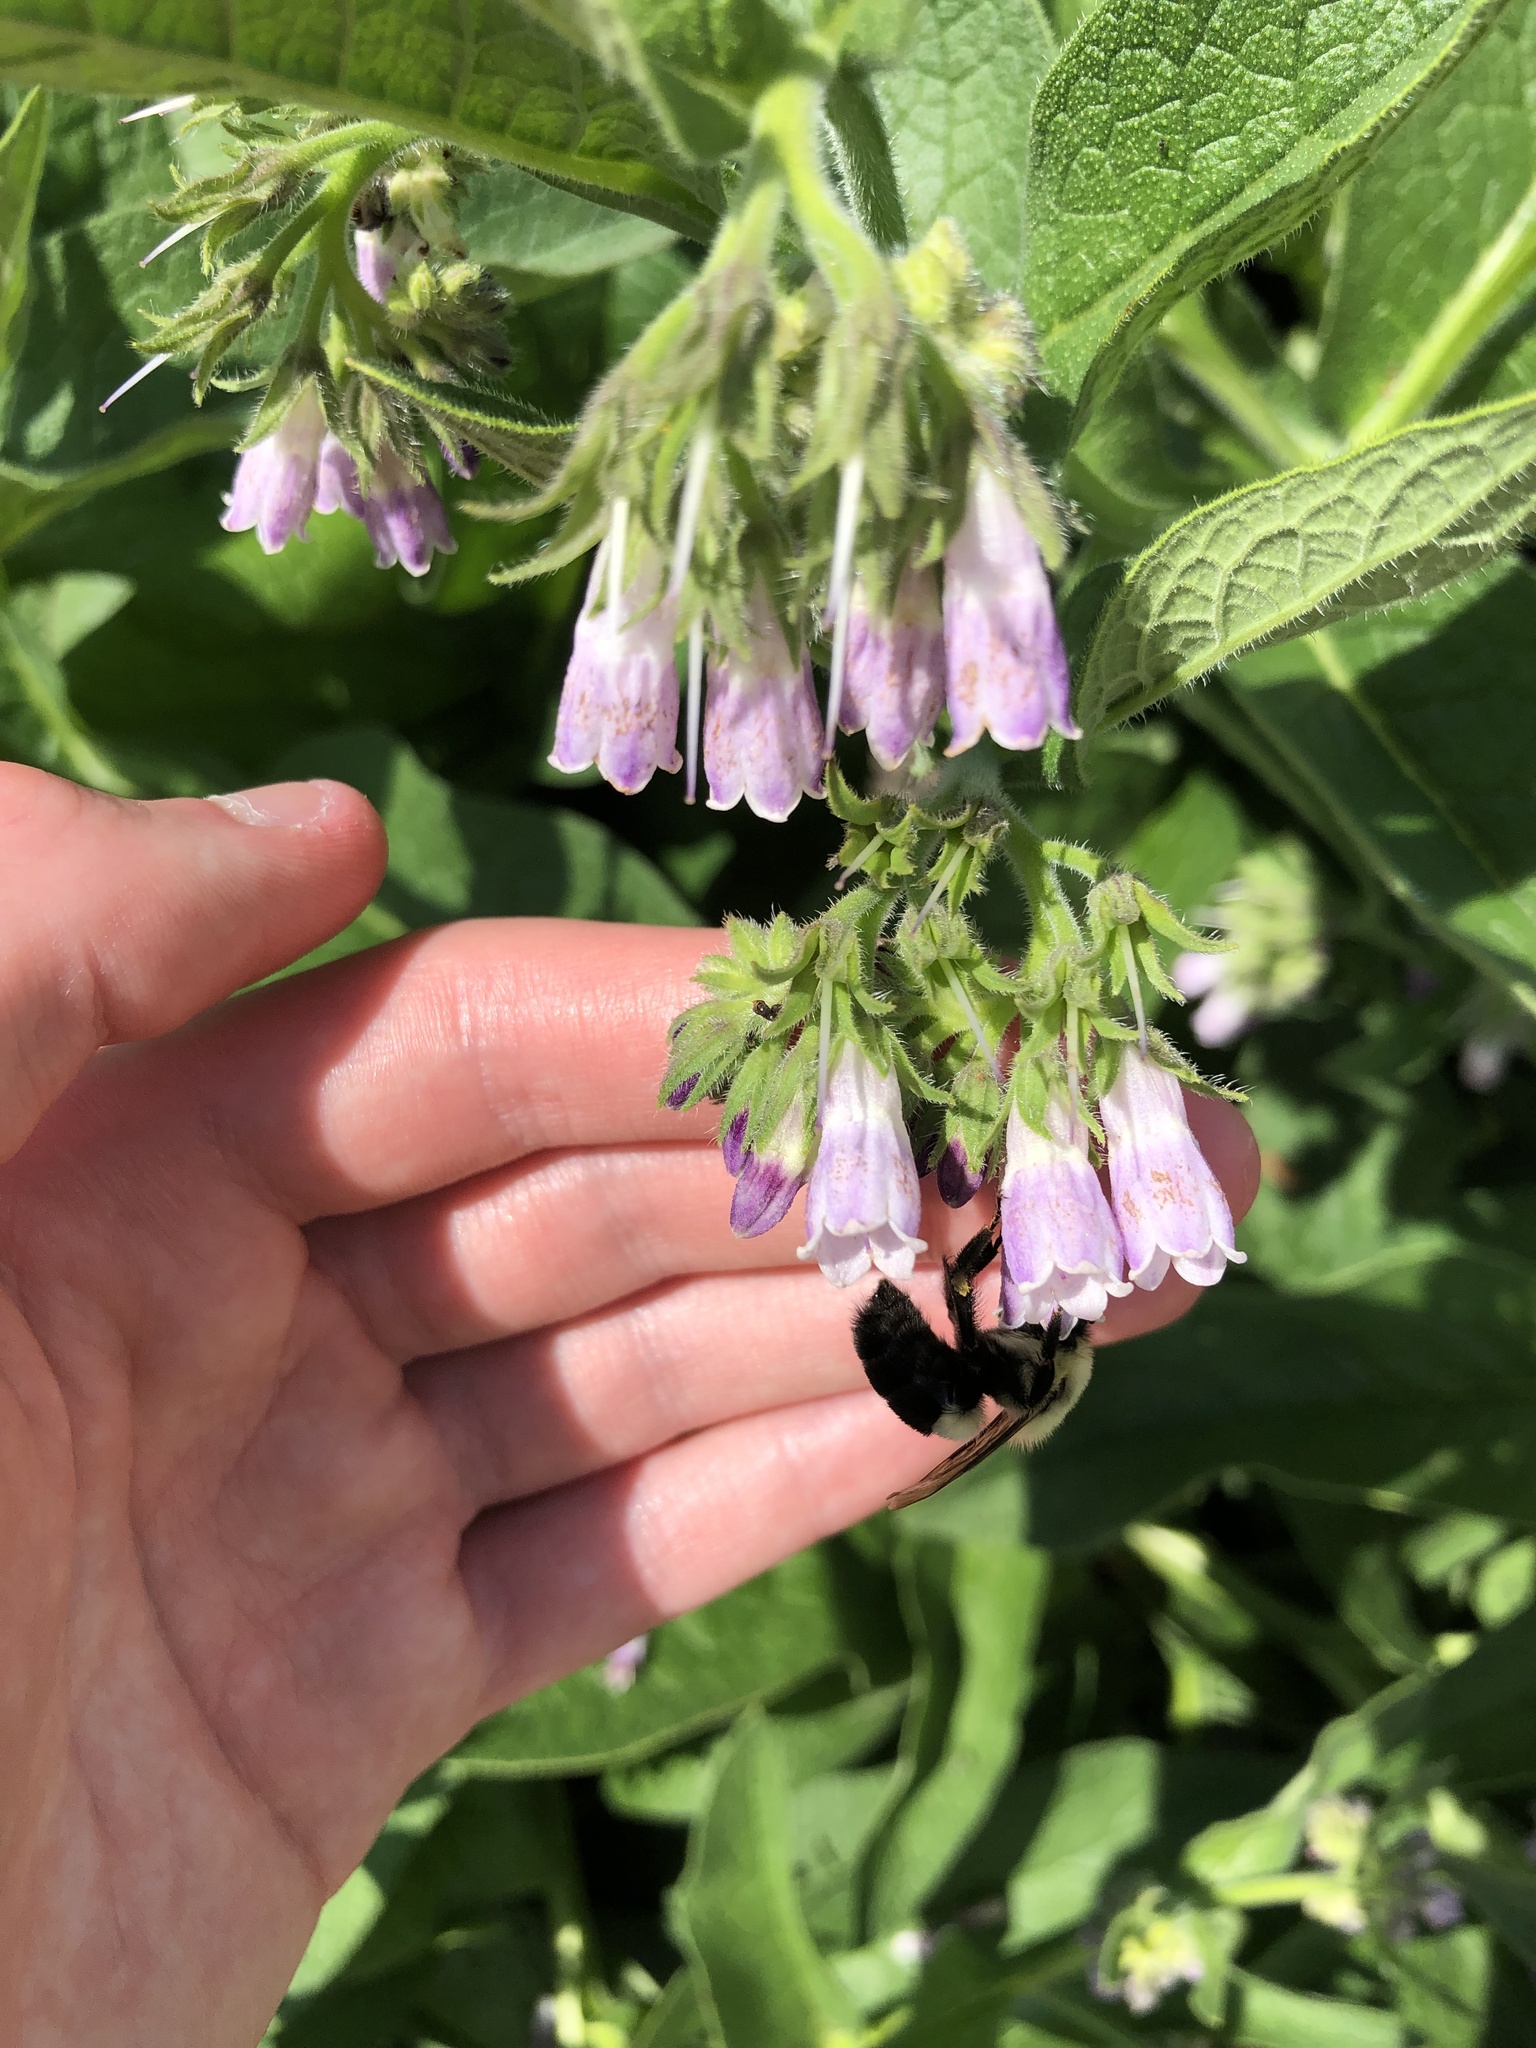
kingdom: Animalia
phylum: Arthropoda
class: Insecta
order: Hymenoptera
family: Apidae
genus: Bombus
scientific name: Bombus impatiens
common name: Common eastern bumble bee
